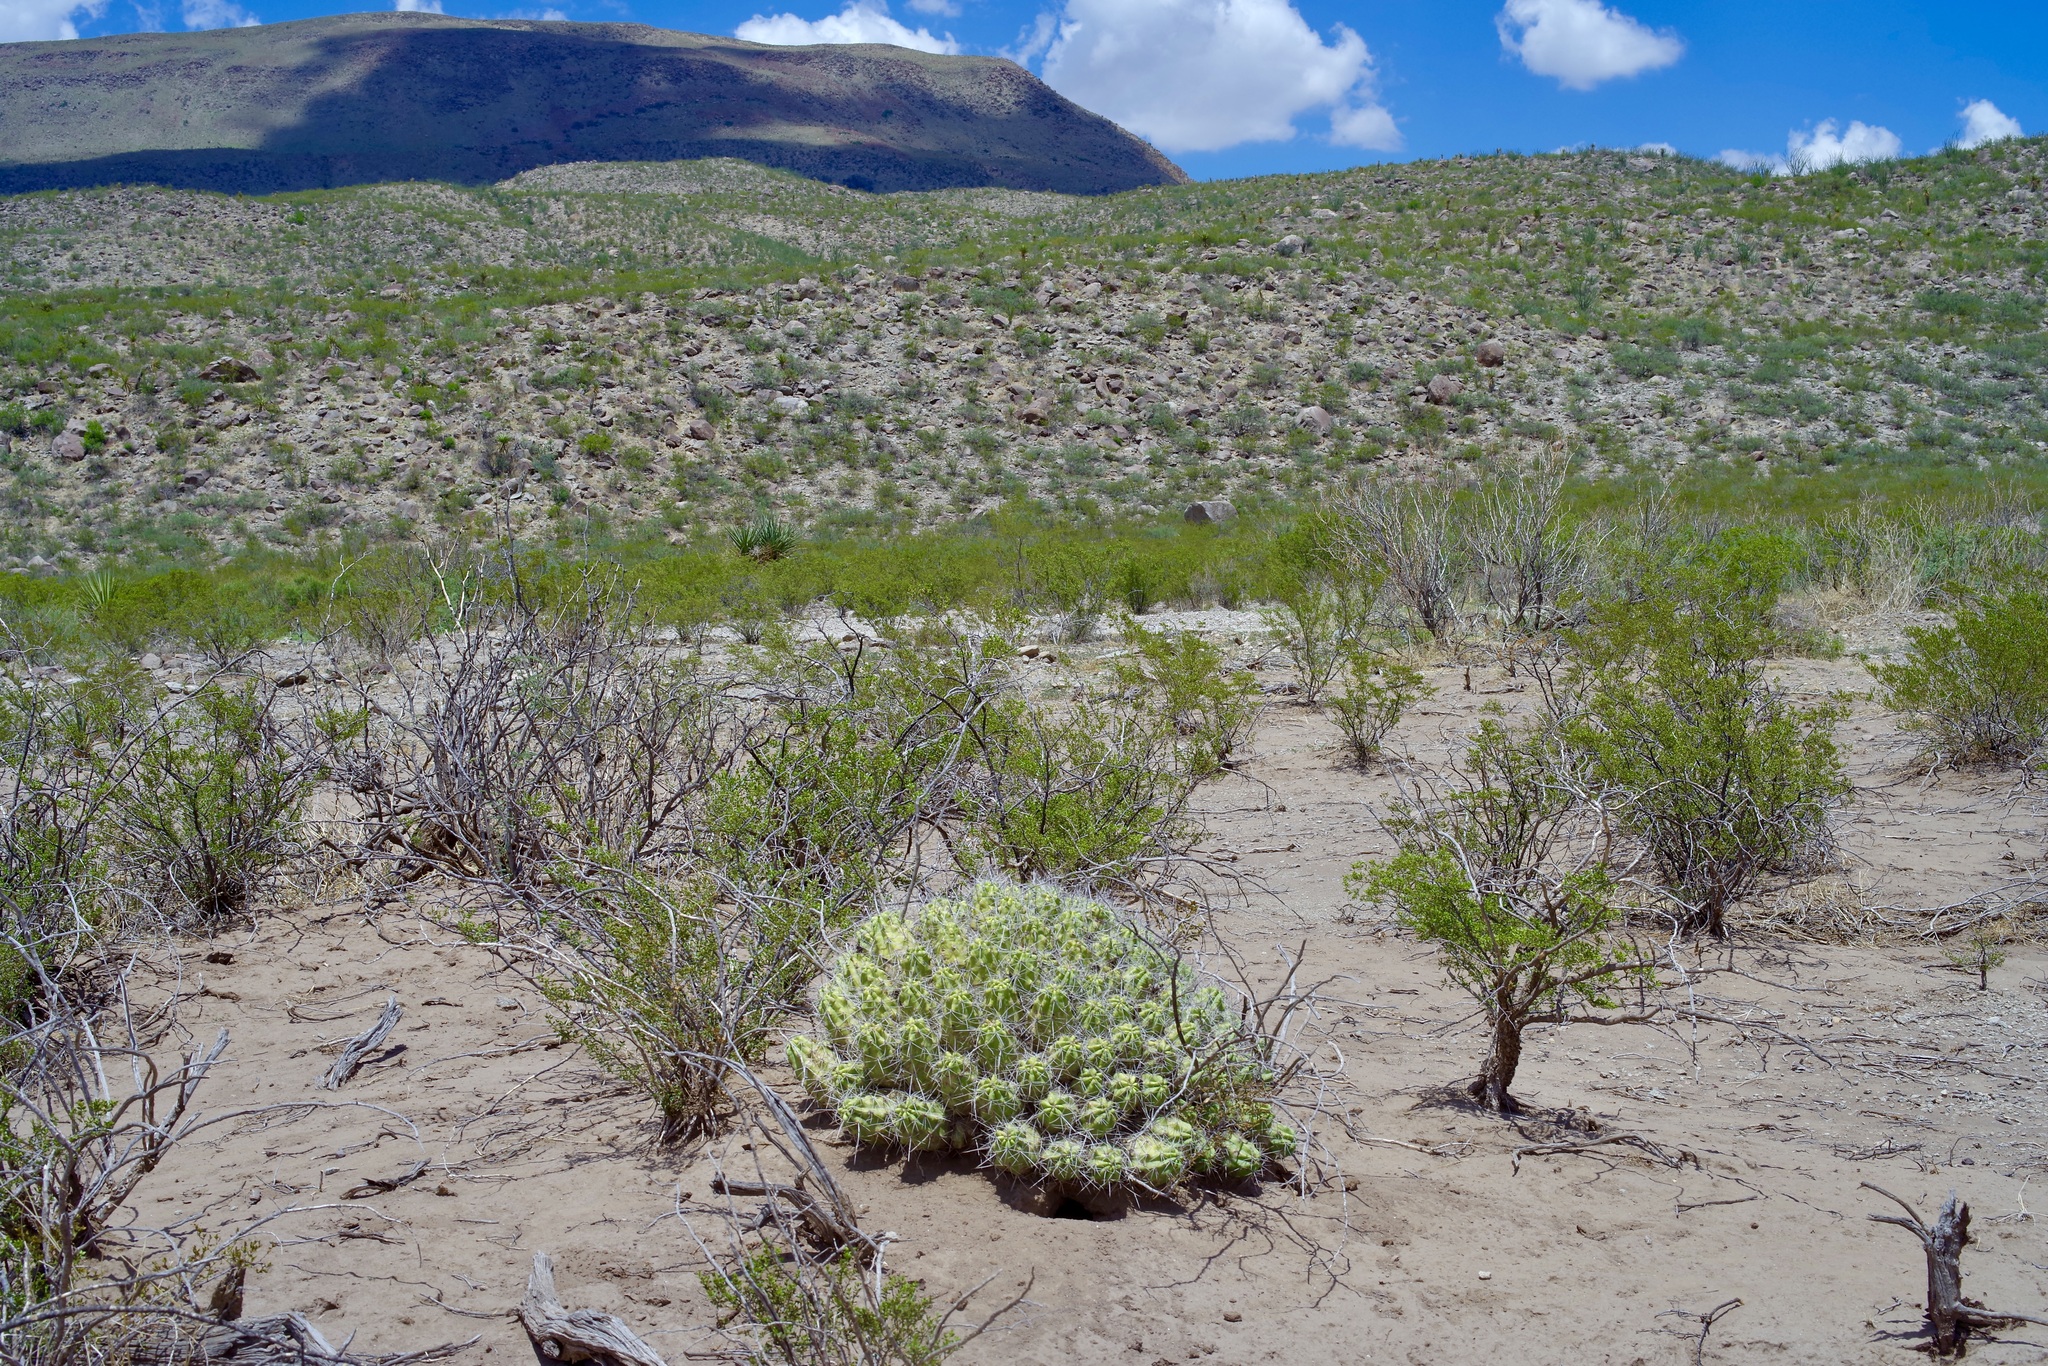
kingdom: Plantae
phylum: Tracheophyta
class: Magnoliopsida
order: Caryophyllales
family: Cactaceae
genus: Echinocereus
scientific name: Echinocereus enneacanthus
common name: Pitaya
